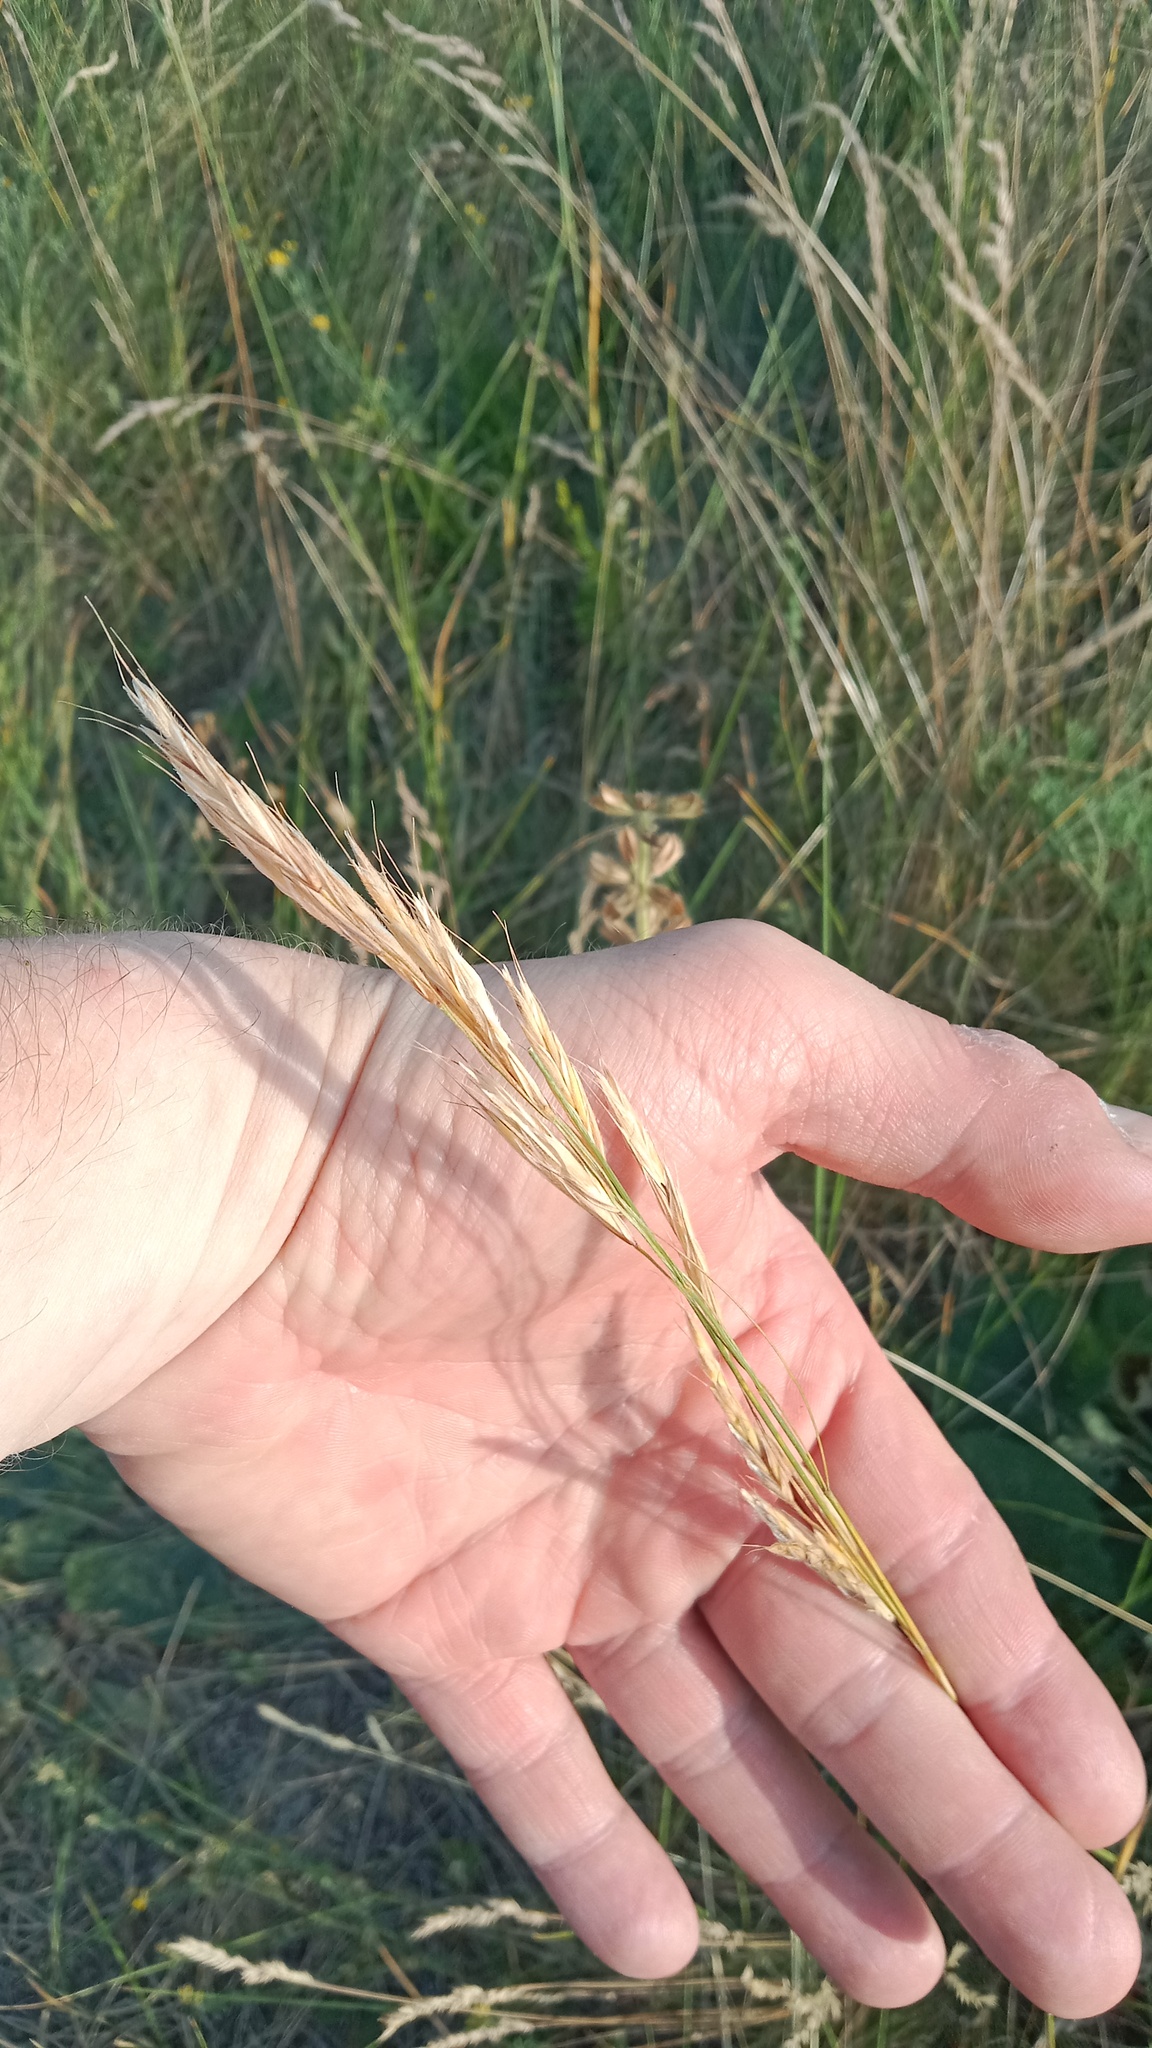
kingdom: Plantae
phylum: Tracheophyta
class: Liliopsida
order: Poales
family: Poaceae
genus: Bromus
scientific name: Bromus riparius
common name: Meadow brome
